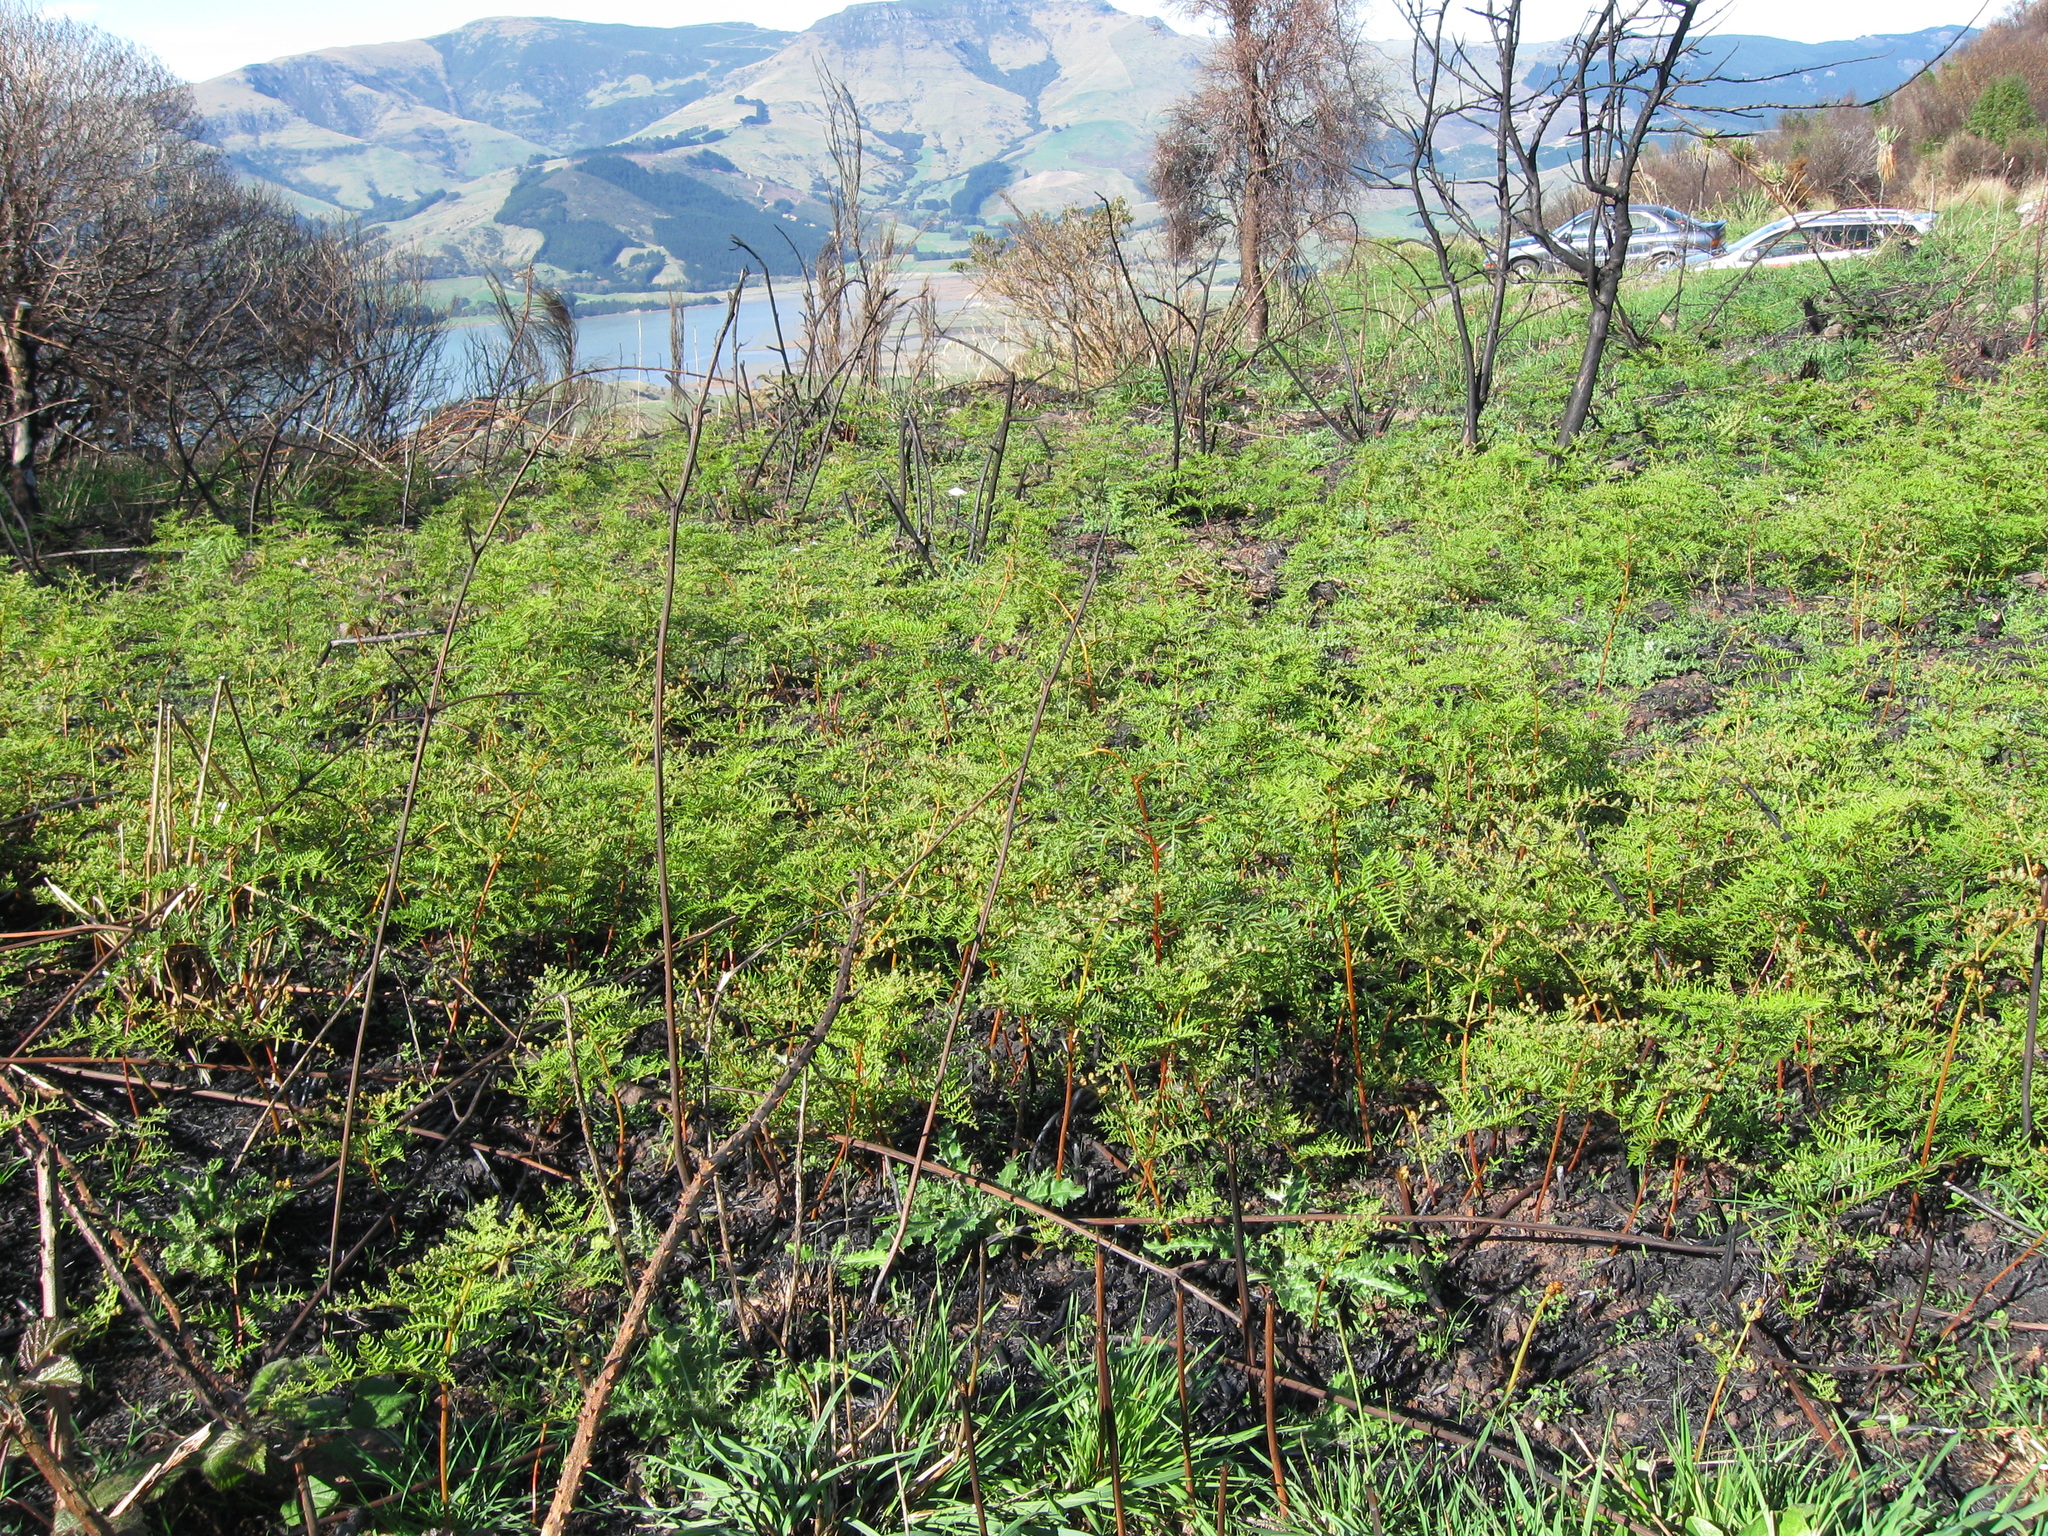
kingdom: Plantae
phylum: Tracheophyta
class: Polypodiopsida
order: Polypodiales
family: Dennstaedtiaceae
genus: Pteridium
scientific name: Pteridium esculentum
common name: Bracken fern
